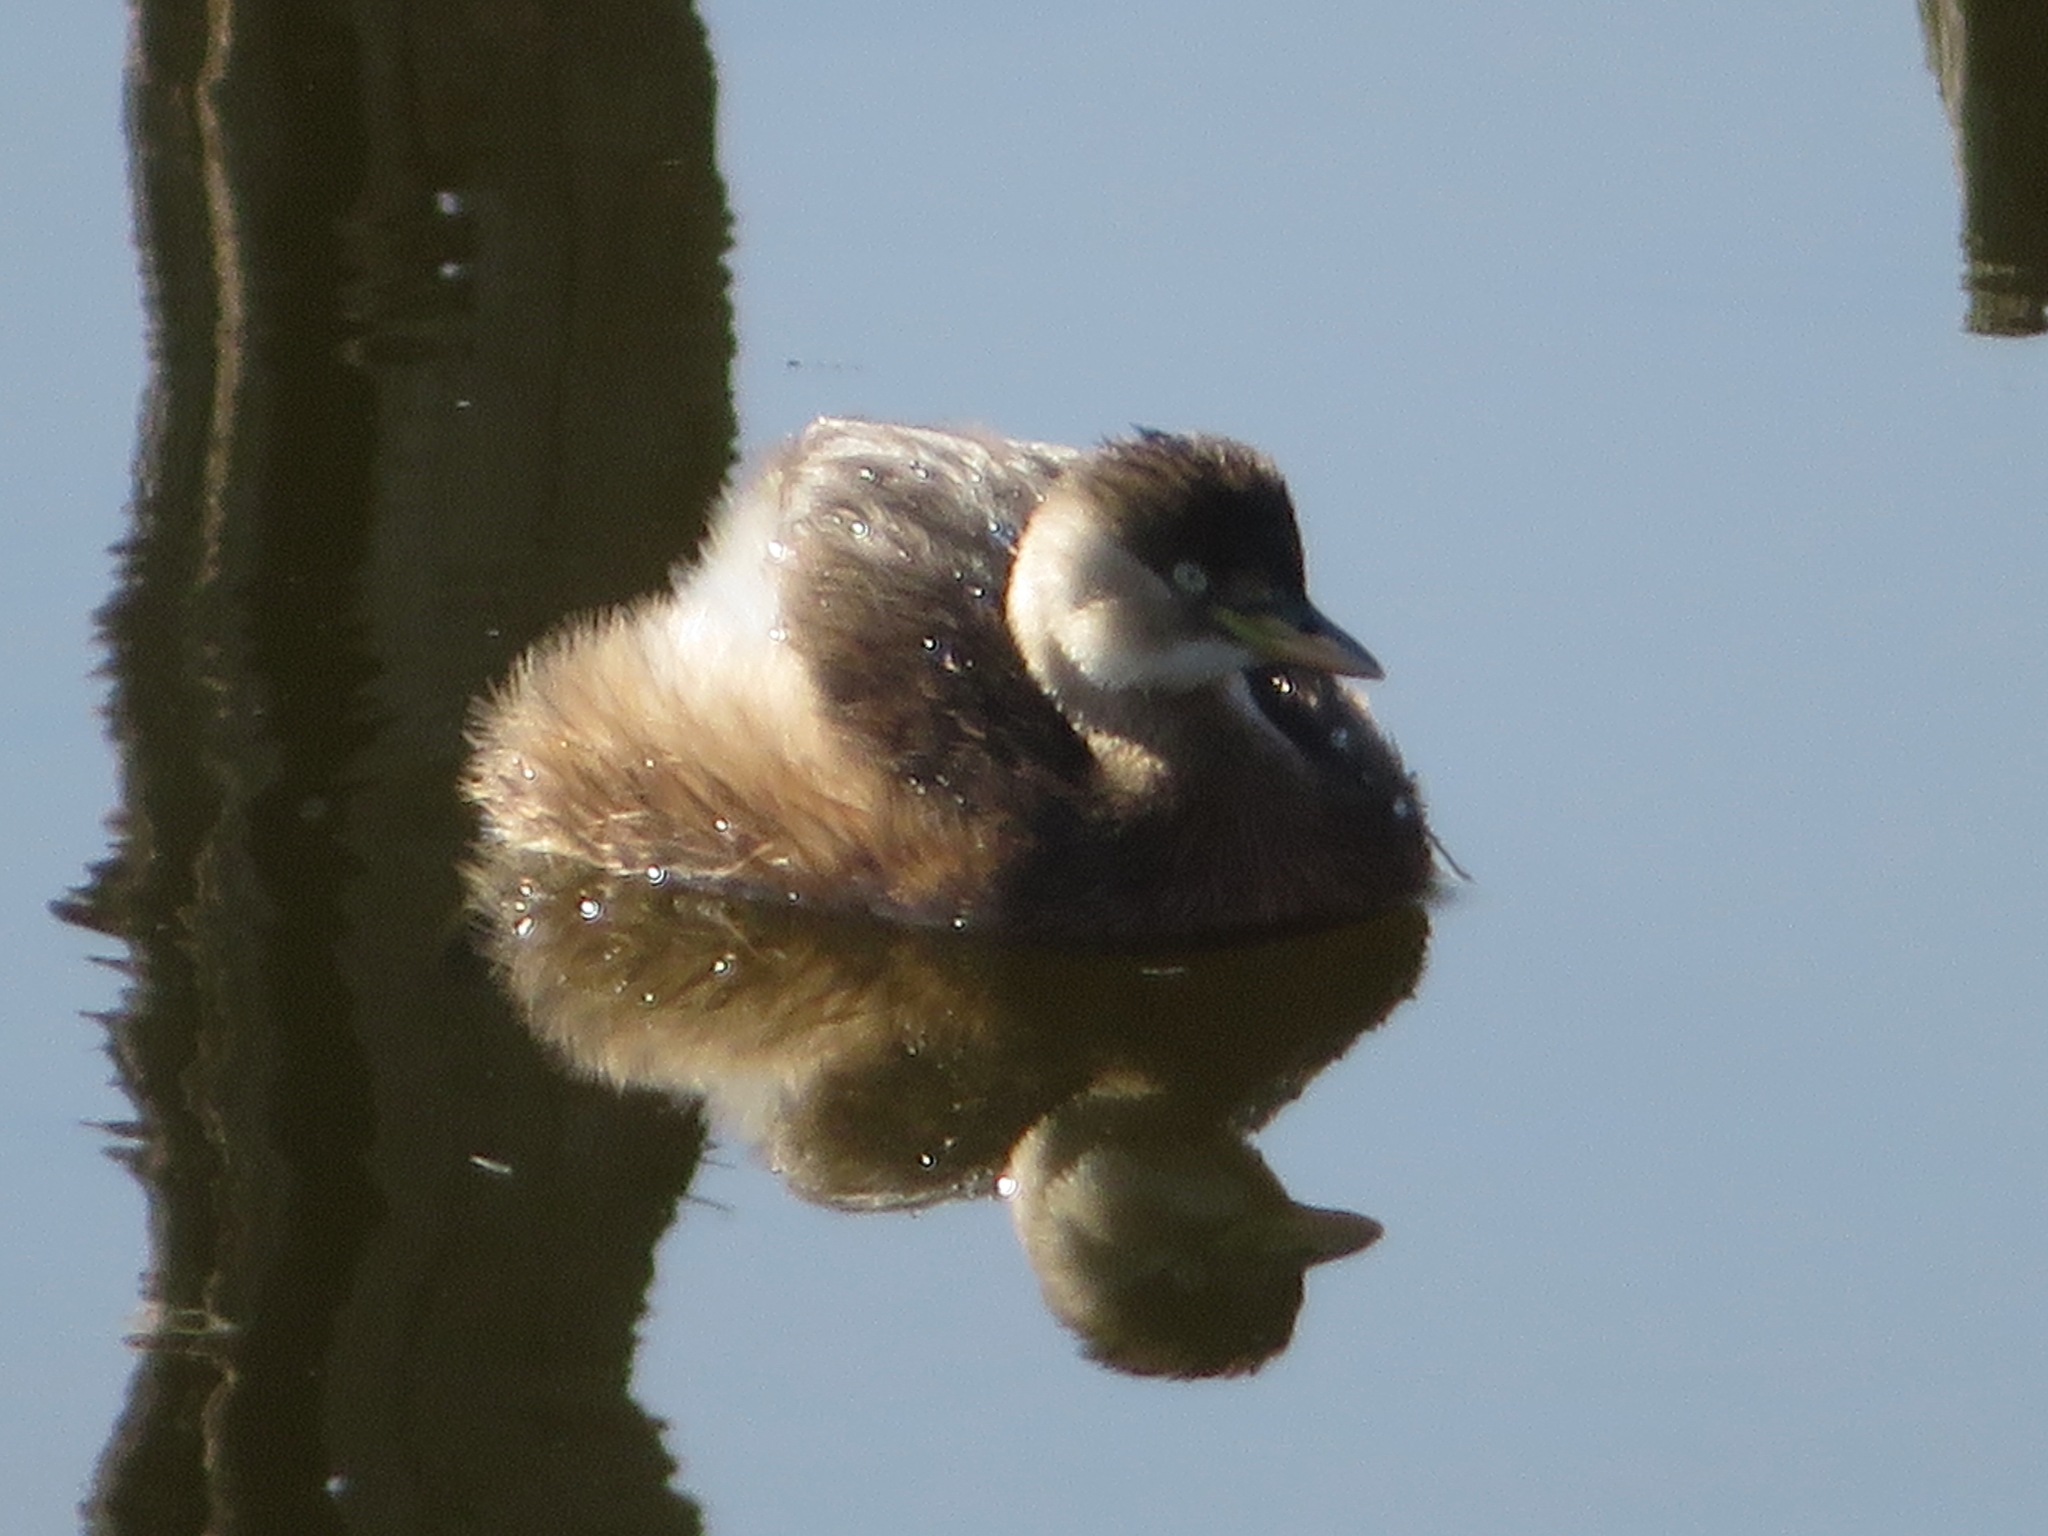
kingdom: Animalia
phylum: Chordata
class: Aves
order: Podicipediformes
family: Podicipedidae
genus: Tachybaptus
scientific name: Tachybaptus ruficollis
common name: Little grebe
